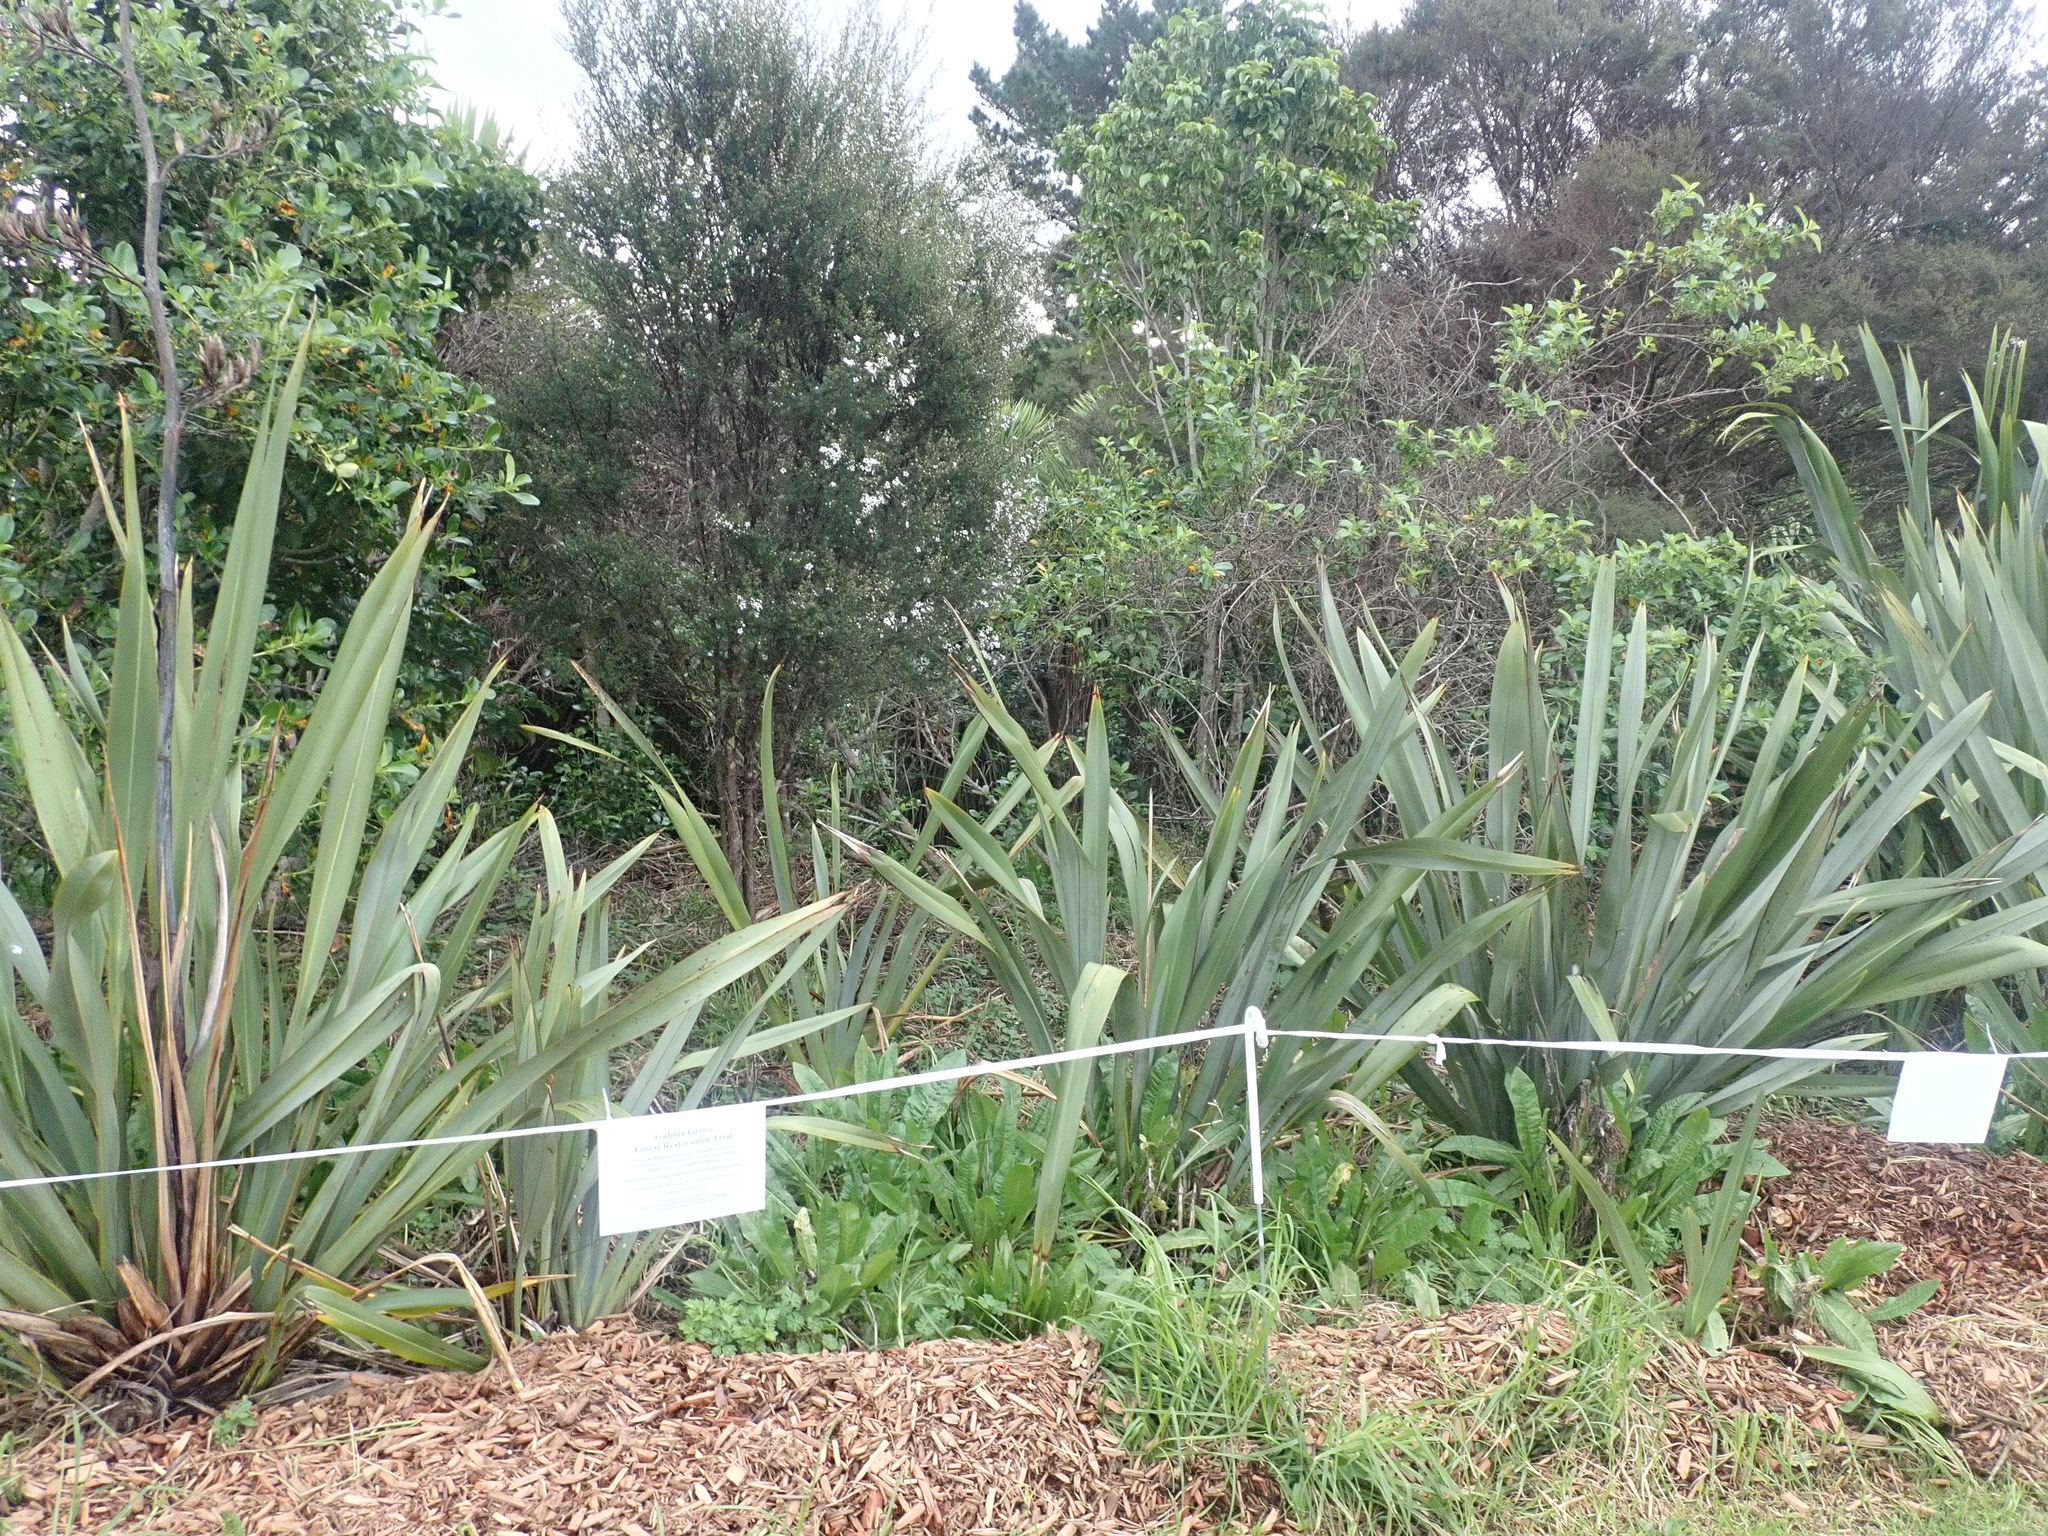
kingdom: Plantae
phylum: Tracheophyta
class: Magnoliopsida
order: Myrtales
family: Myrtaceae
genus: Leptospermum
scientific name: Leptospermum scoparium
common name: Broom tea-tree
